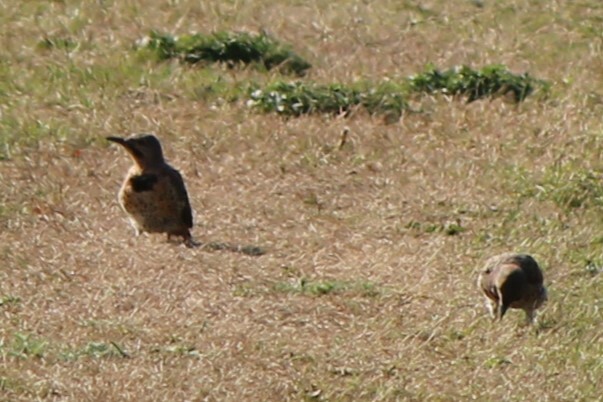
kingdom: Animalia
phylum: Chordata
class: Aves
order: Piciformes
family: Picidae
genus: Colaptes
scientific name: Colaptes auratus
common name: Northern flicker
